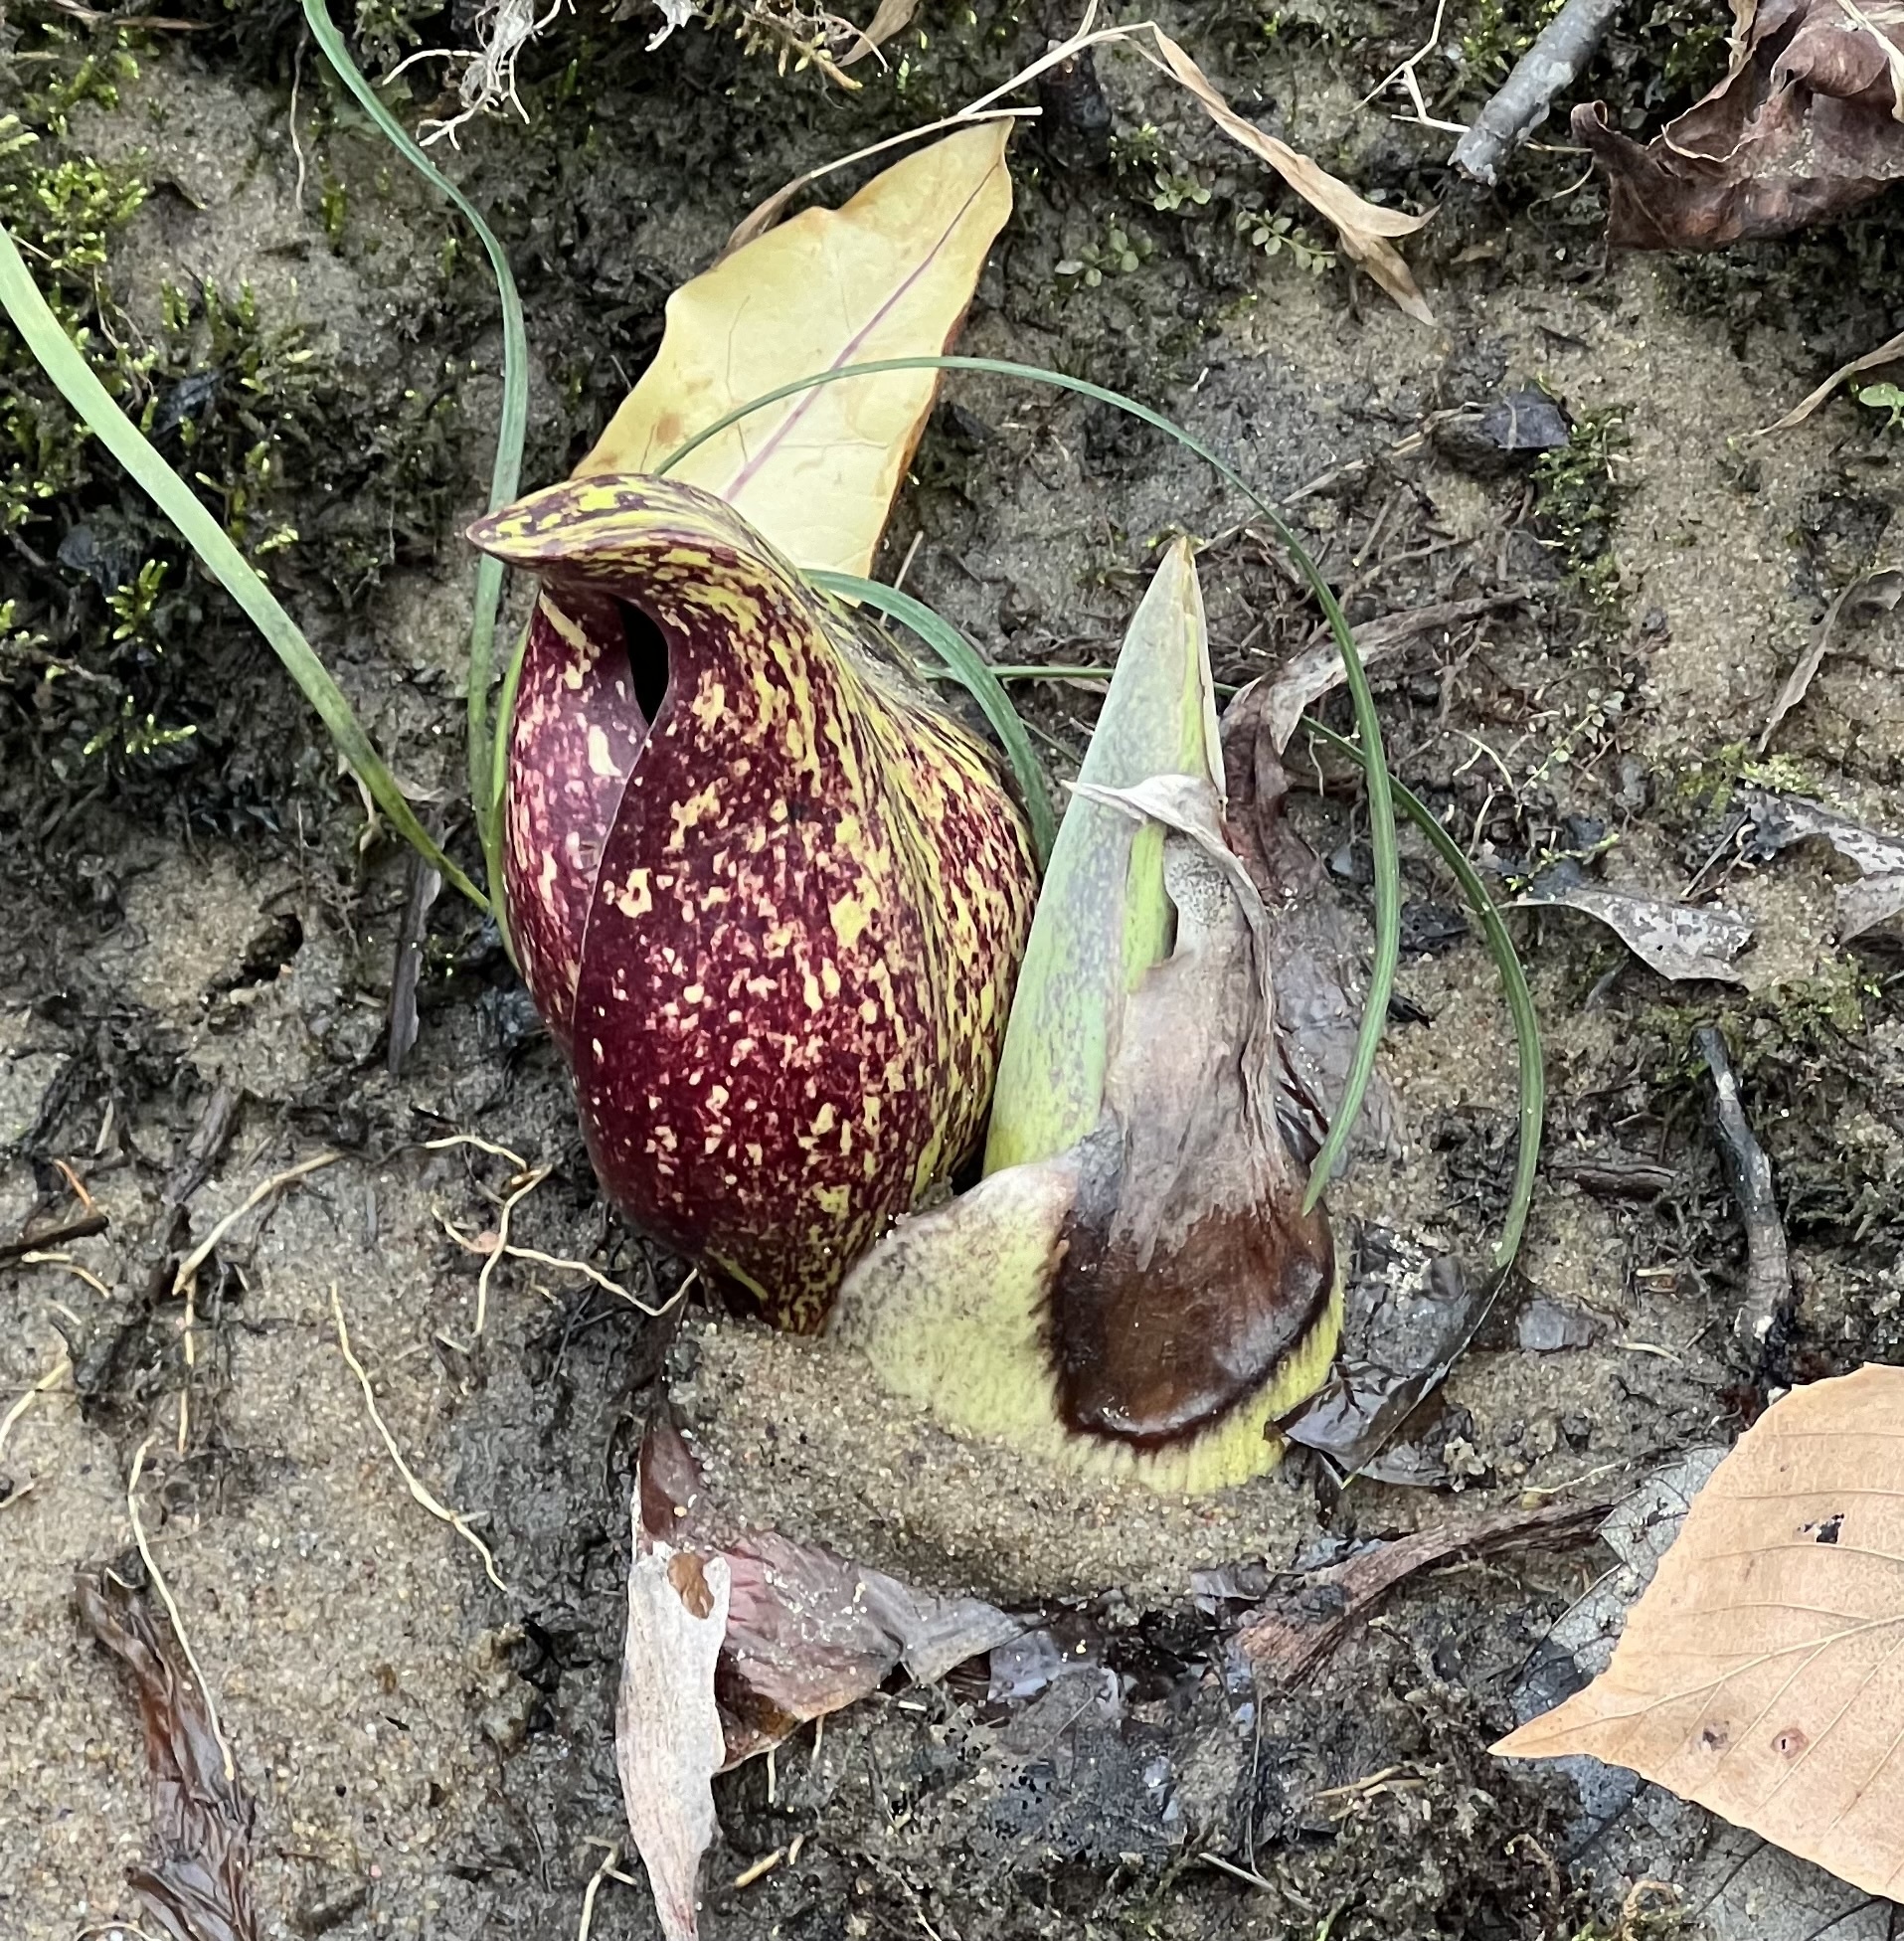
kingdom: Plantae
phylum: Tracheophyta
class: Liliopsida
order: Alismatales
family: Araceae
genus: Symplocarpus
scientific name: Symplocarpus foetidus
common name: Eastern skunk cabbage
